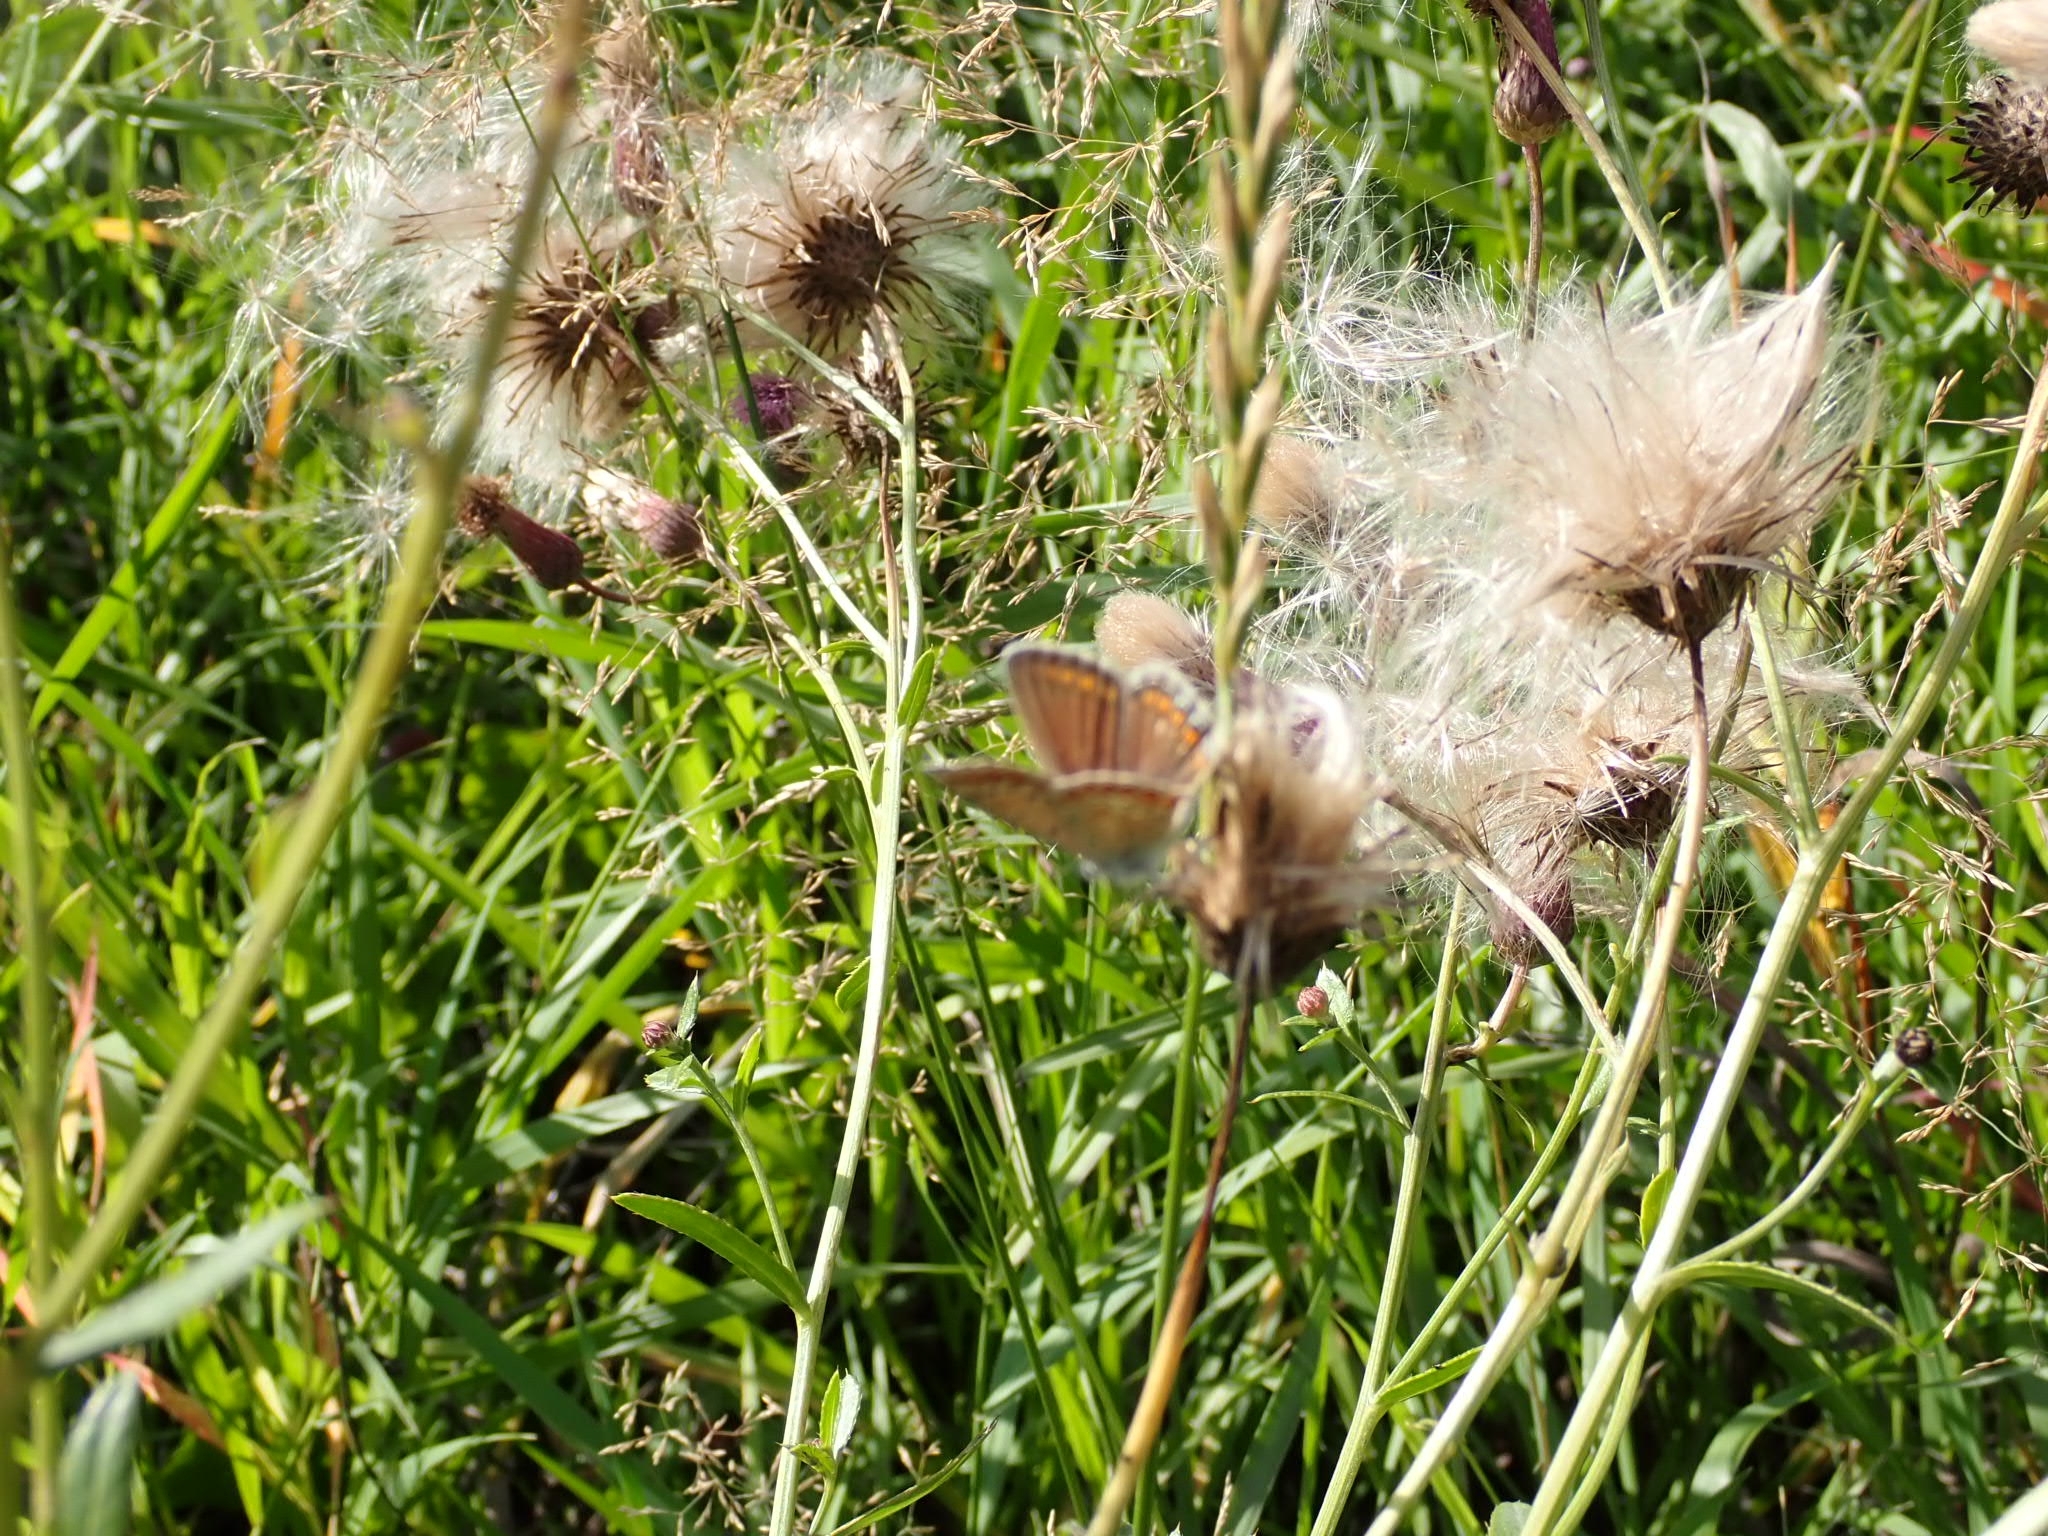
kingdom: Animalia
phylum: Arthropoda
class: Insecta
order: Lepidoptera
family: Lycaenidae
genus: Polyommatus
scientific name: Polyommatus icarus
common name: Common blue
